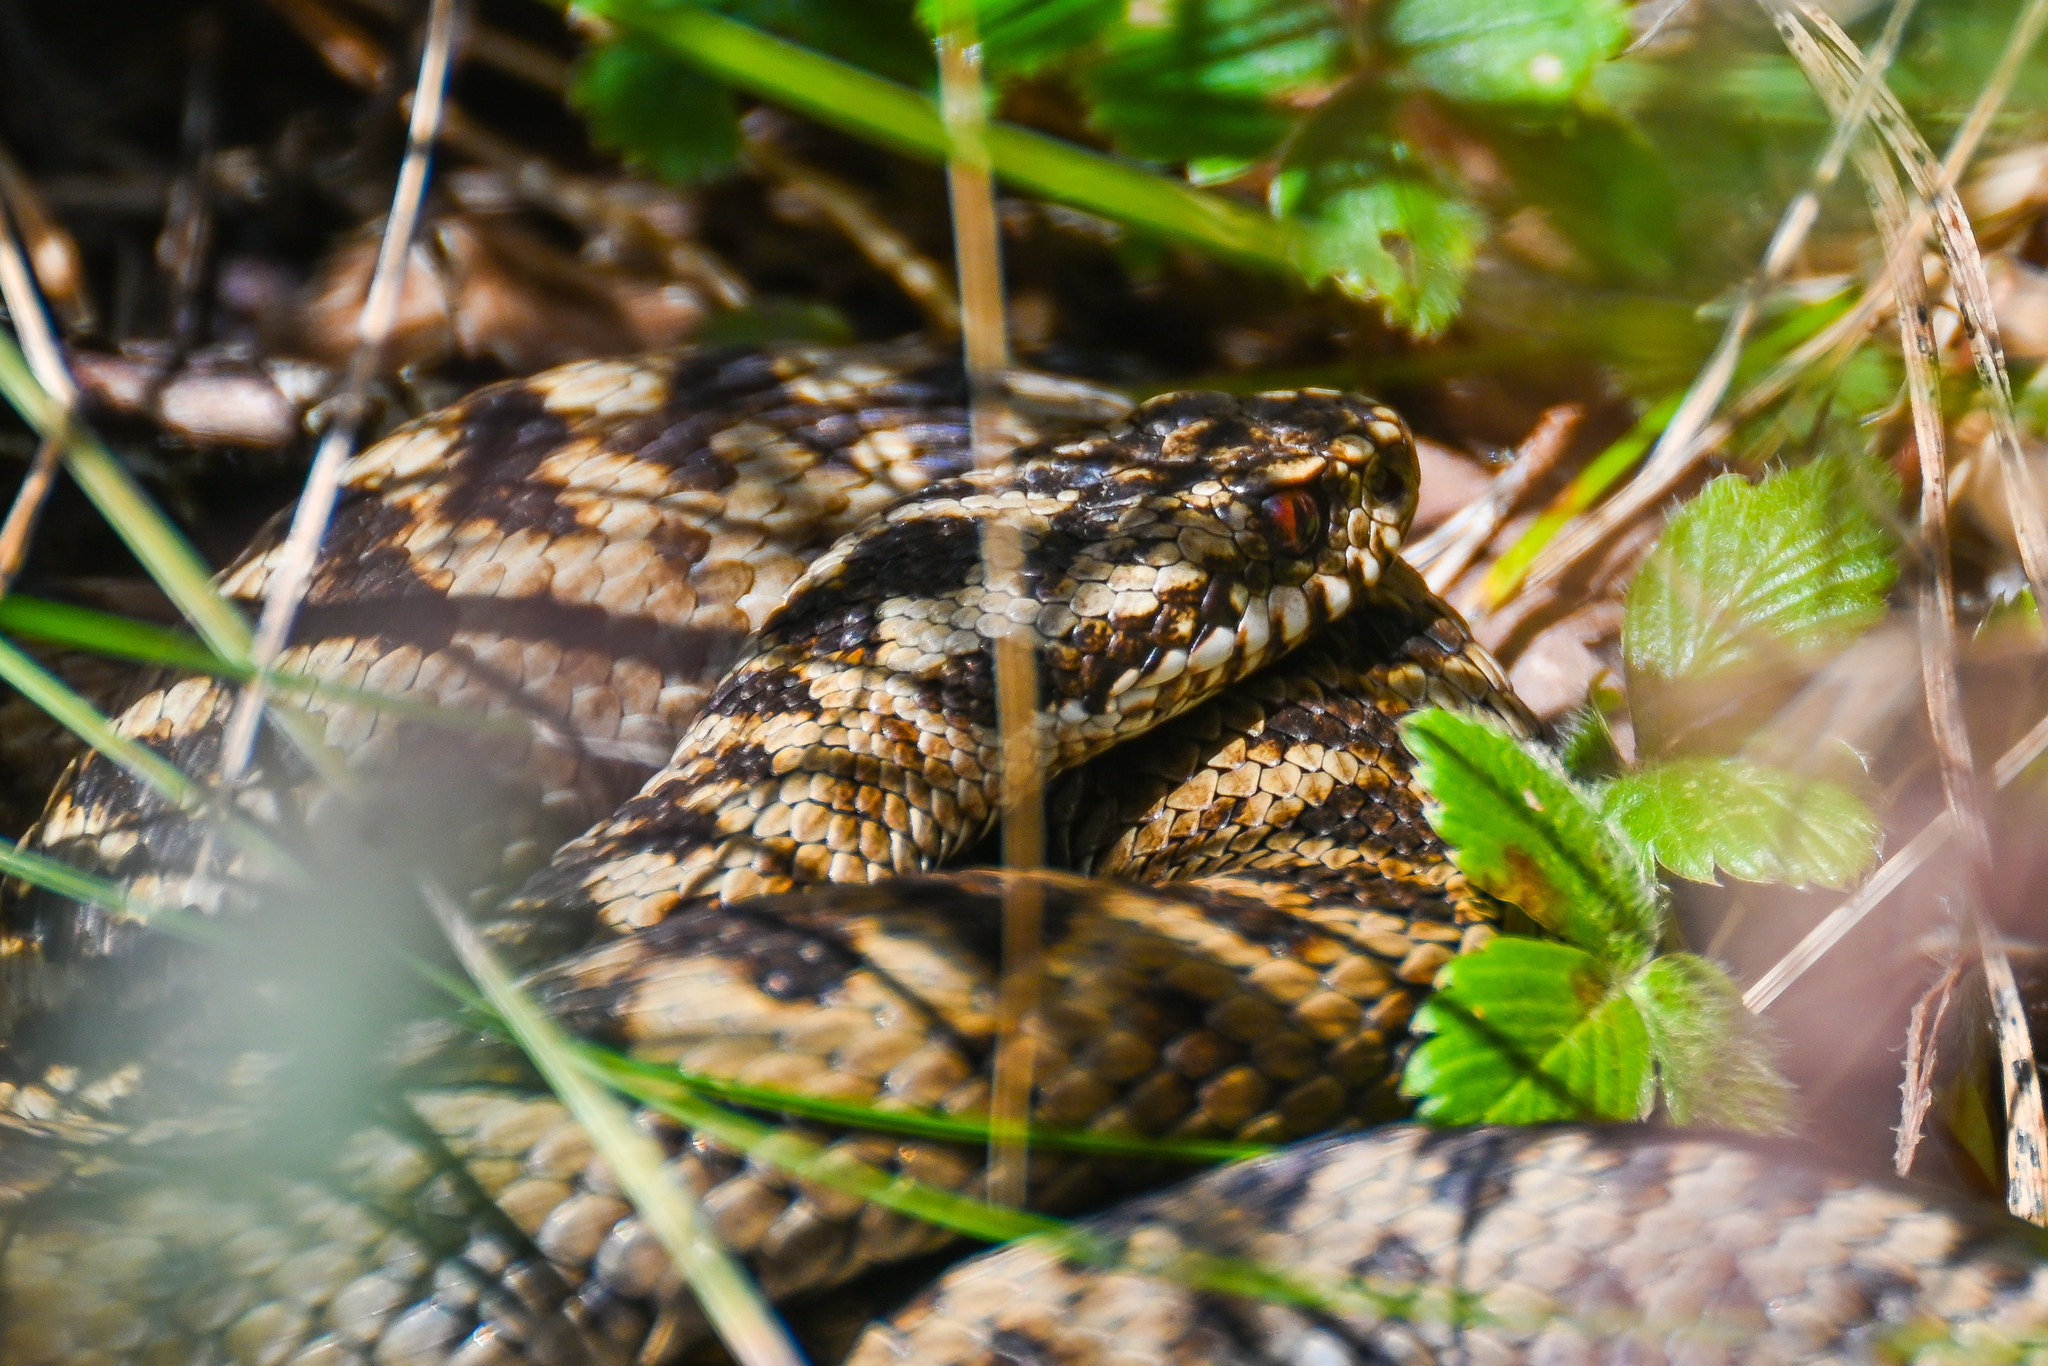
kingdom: Animalia
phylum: Chordata
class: Squamata
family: Viperidae
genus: Vipera
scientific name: Vipera berus
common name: Adder
